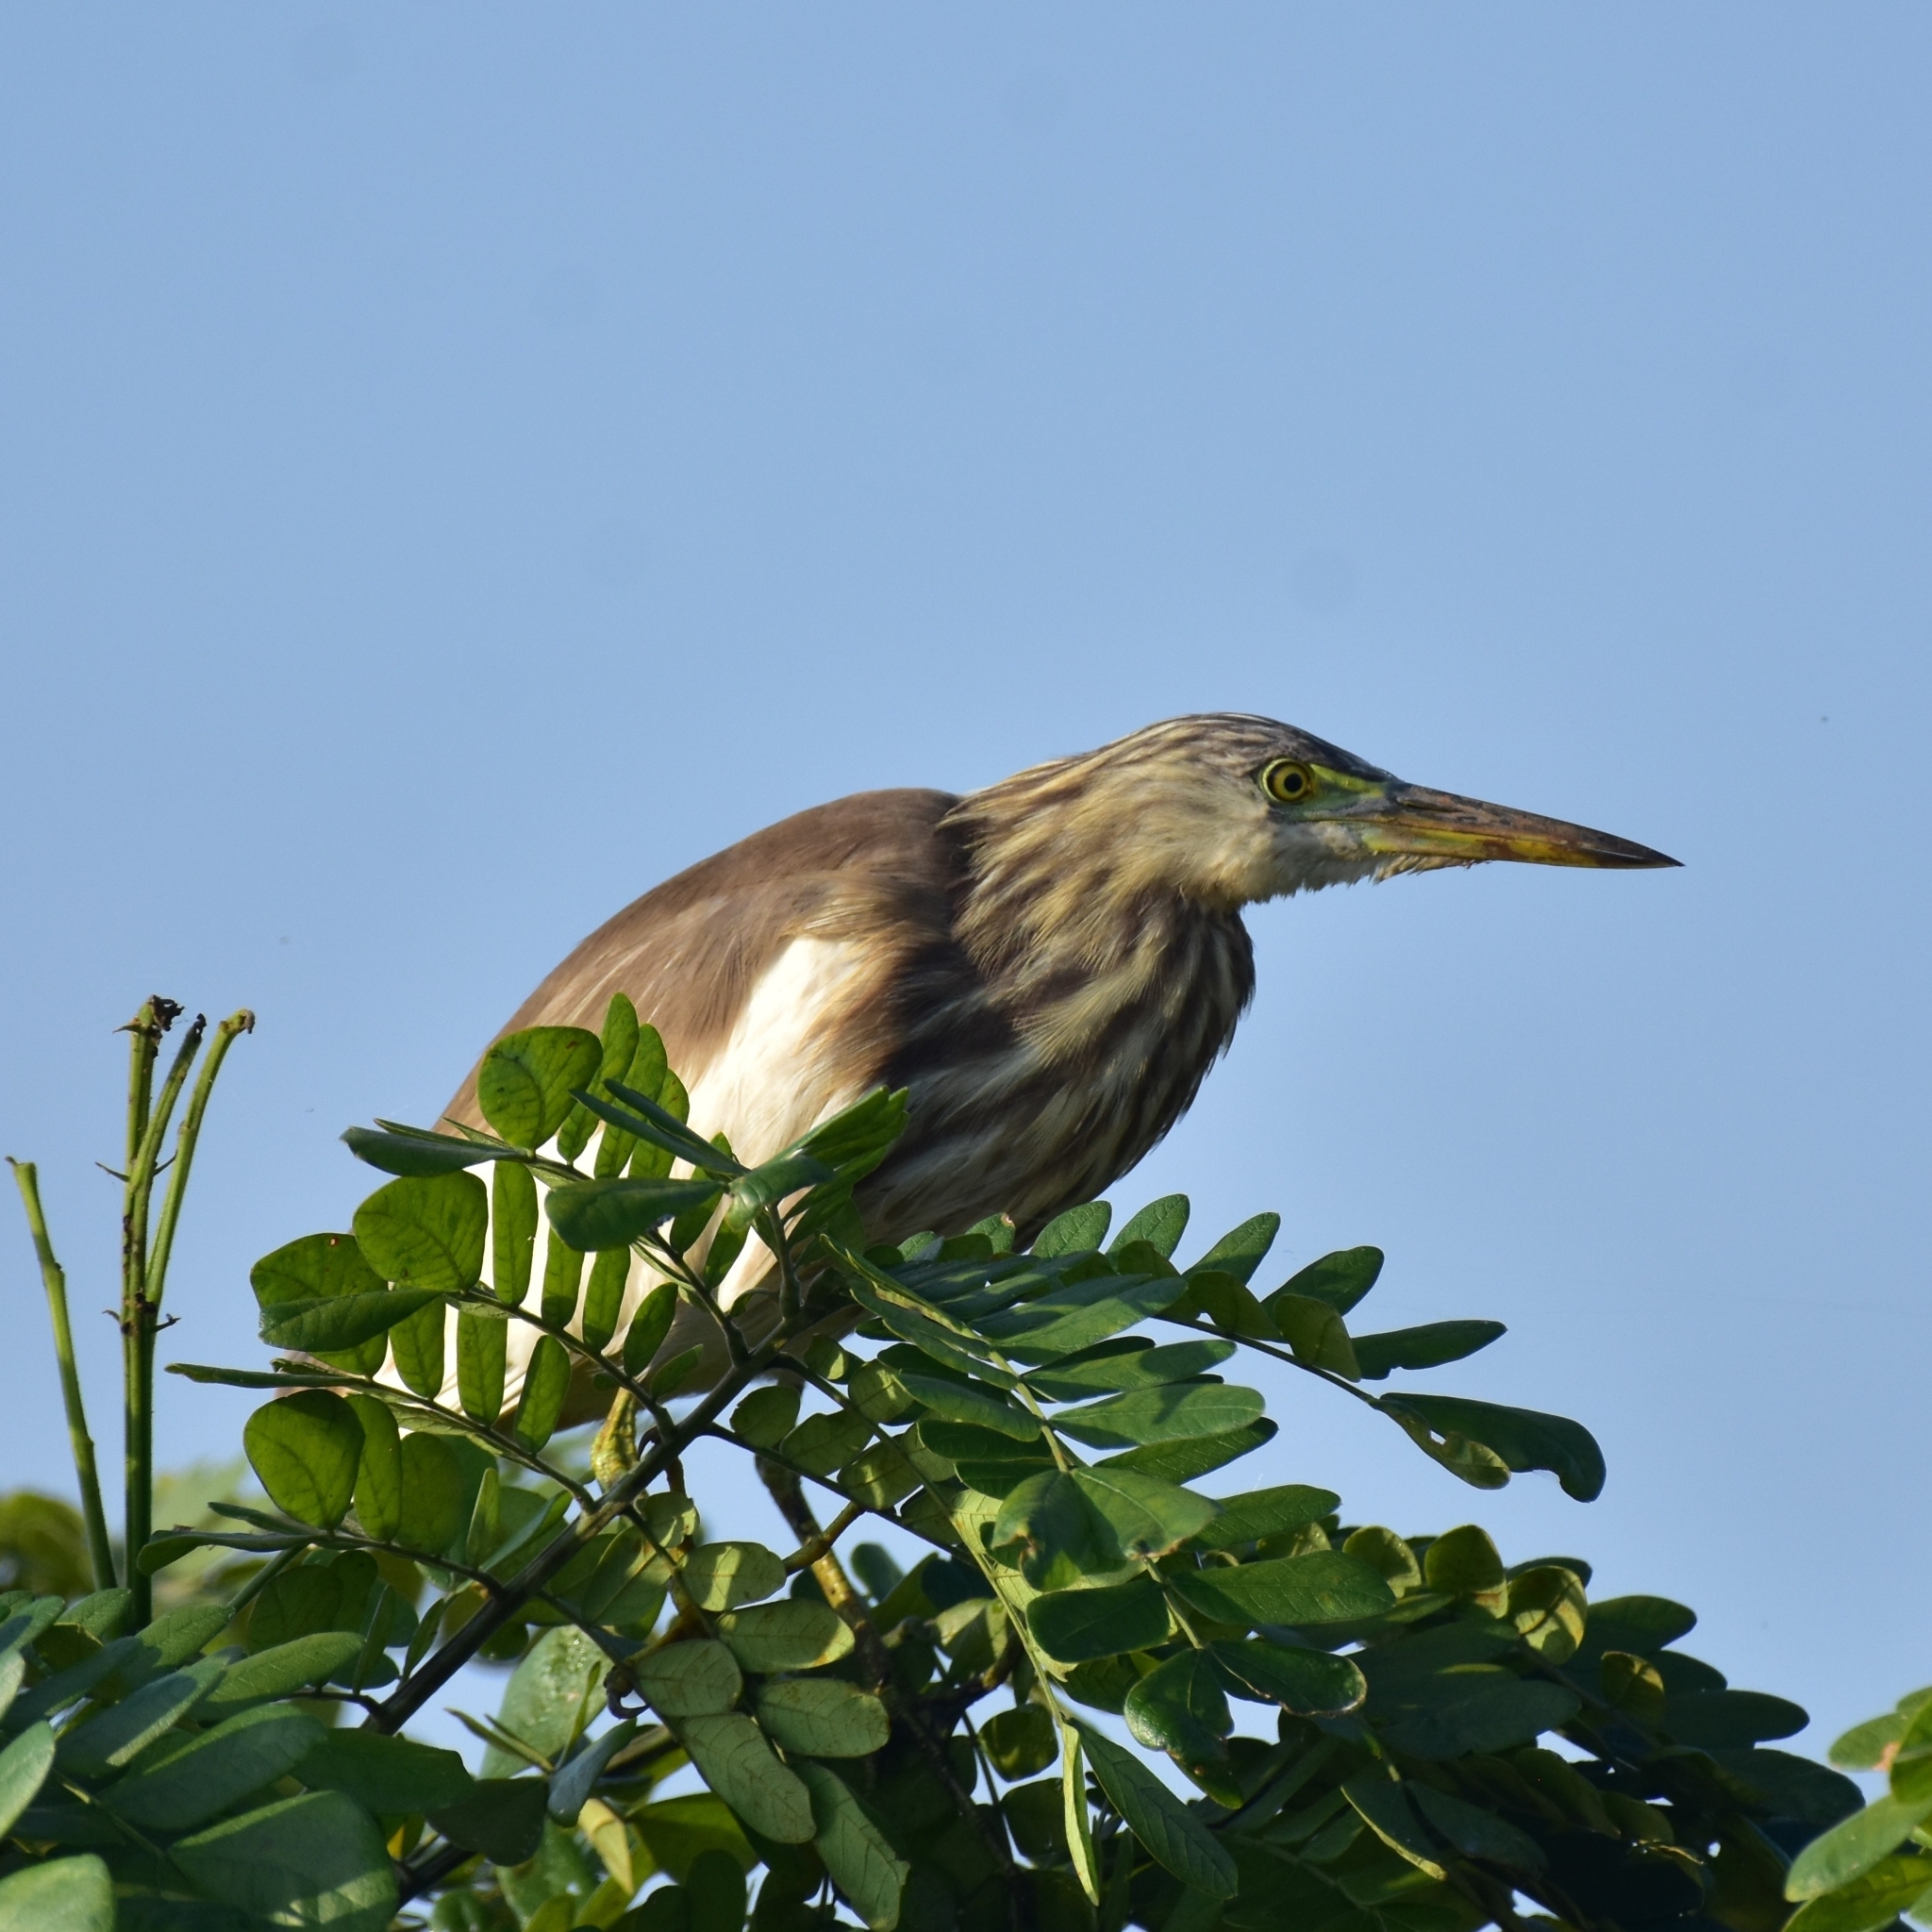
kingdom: Animalia
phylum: Chordata
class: Aves
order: Pelecaniformes
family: Ardeidae
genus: Ardeola
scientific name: Ardeola grayii
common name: Indian pond heron
